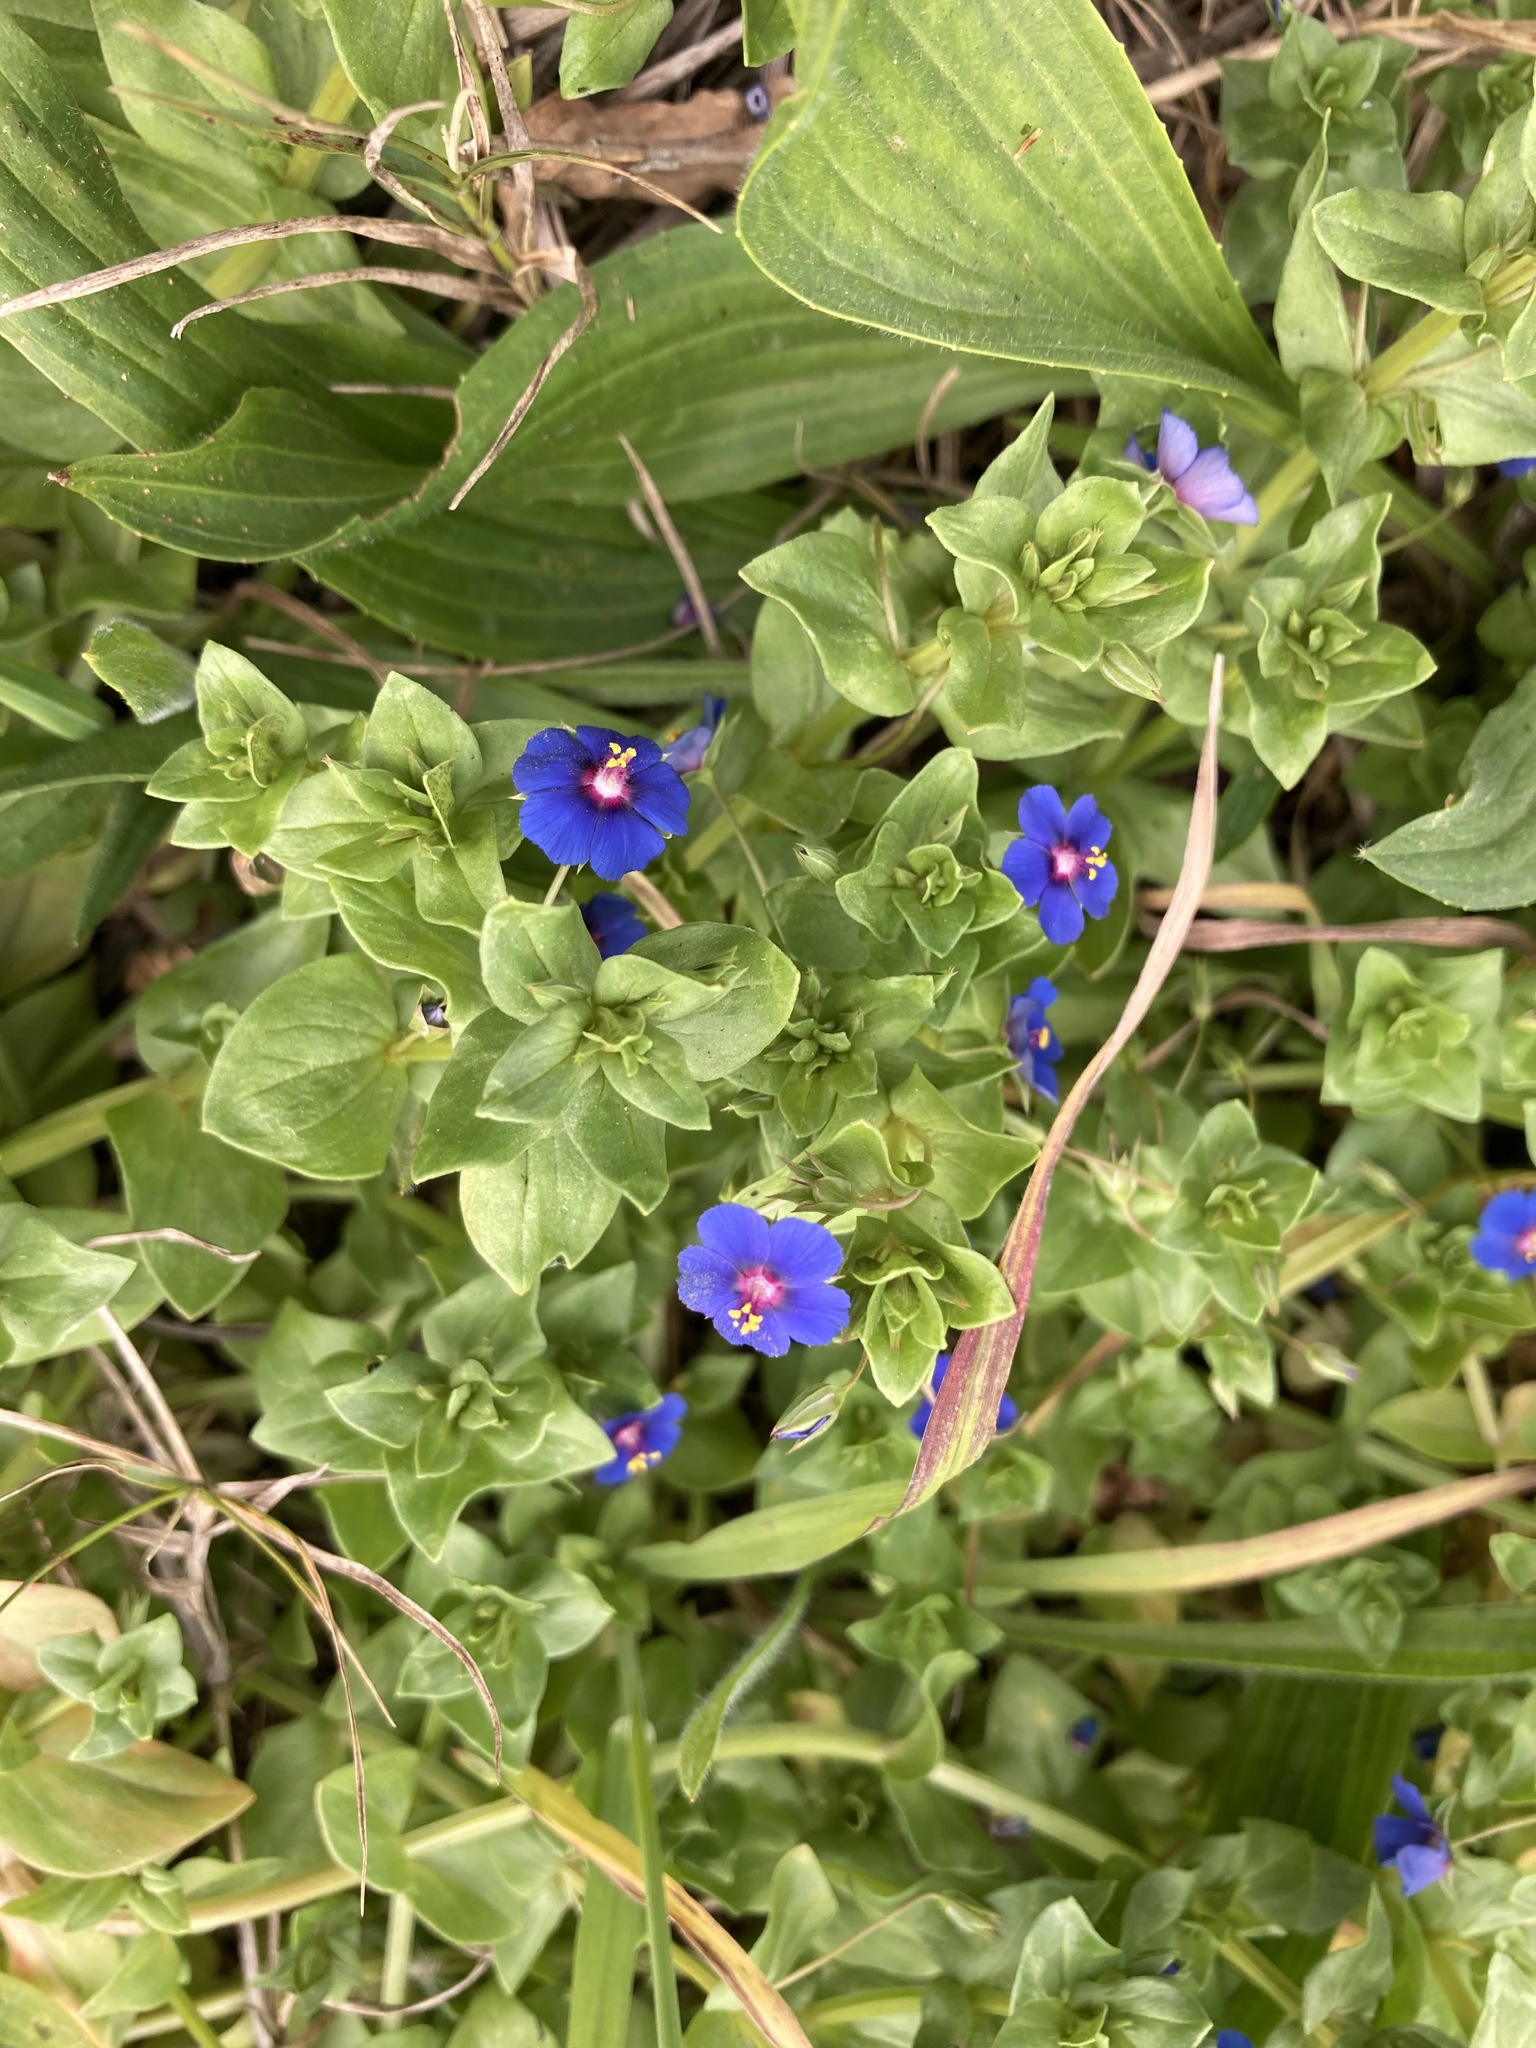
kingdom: Plantae
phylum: Tracheophyta
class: Magnoliopsida
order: Ericales
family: Primulaceae
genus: Lysimachia
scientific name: Lysimachia loeflingii
